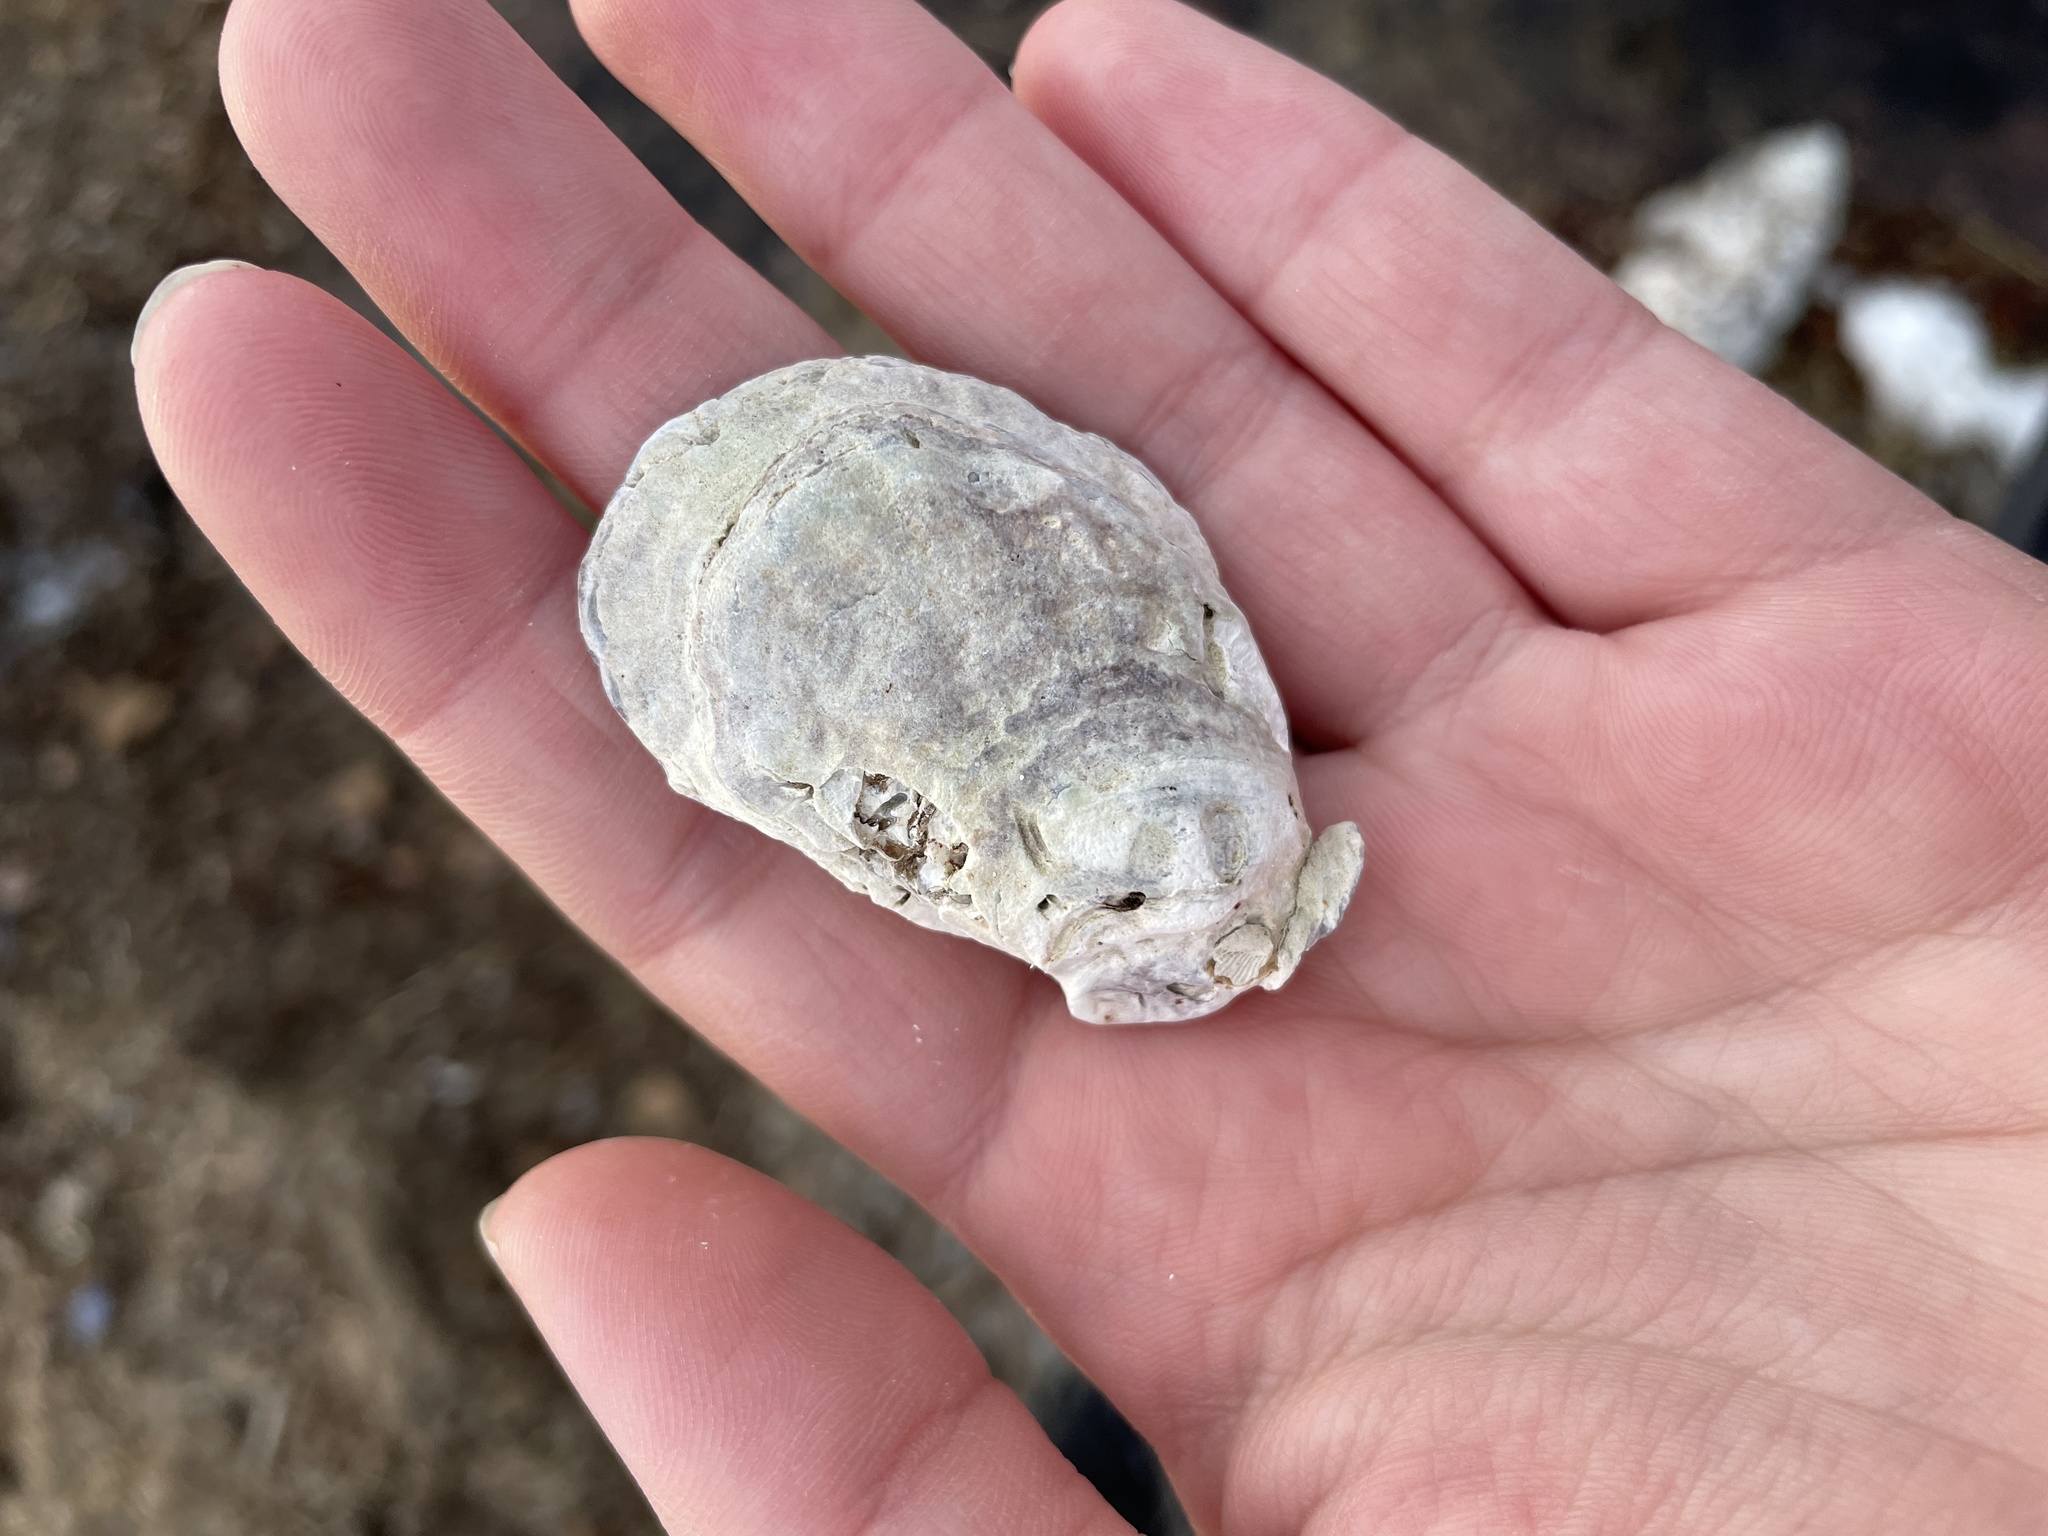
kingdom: Animalia
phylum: Mollusca
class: Bivalvia
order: Ostreida
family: Ostreidae
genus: Crassostrea
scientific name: Crassostrea virginica
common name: American oyster
